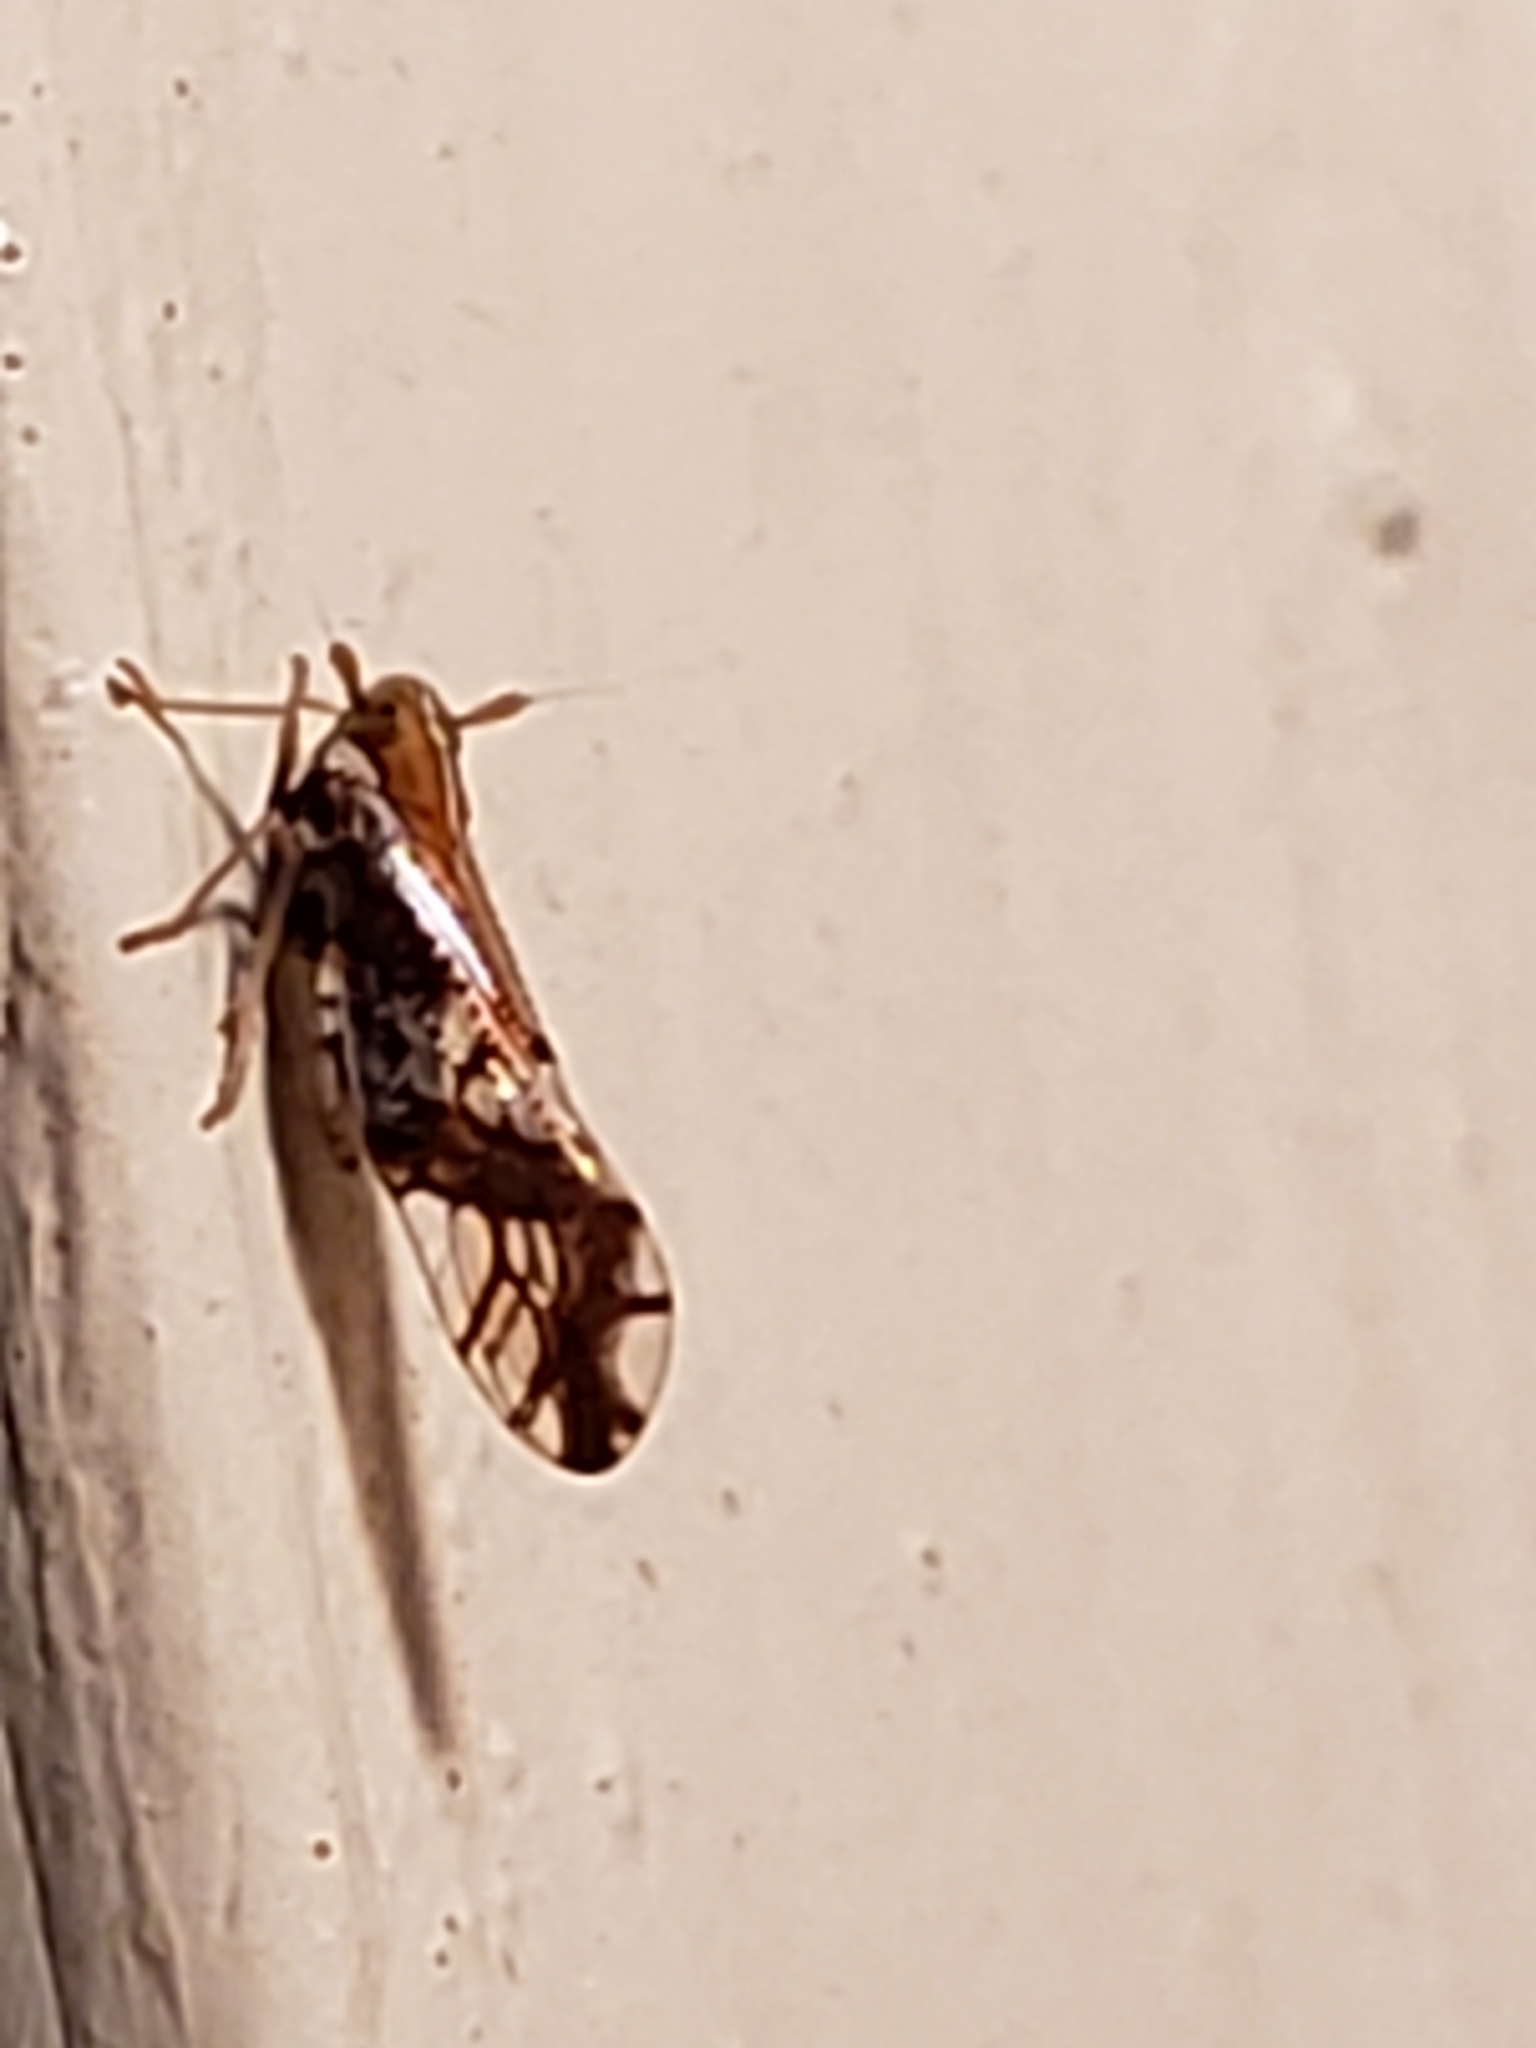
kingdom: Animalia
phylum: Arthropoda
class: Insecta
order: Hemiptera
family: Delphacidae
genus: Liburniella
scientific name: Liburniella ornata
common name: Ornate planthopper
